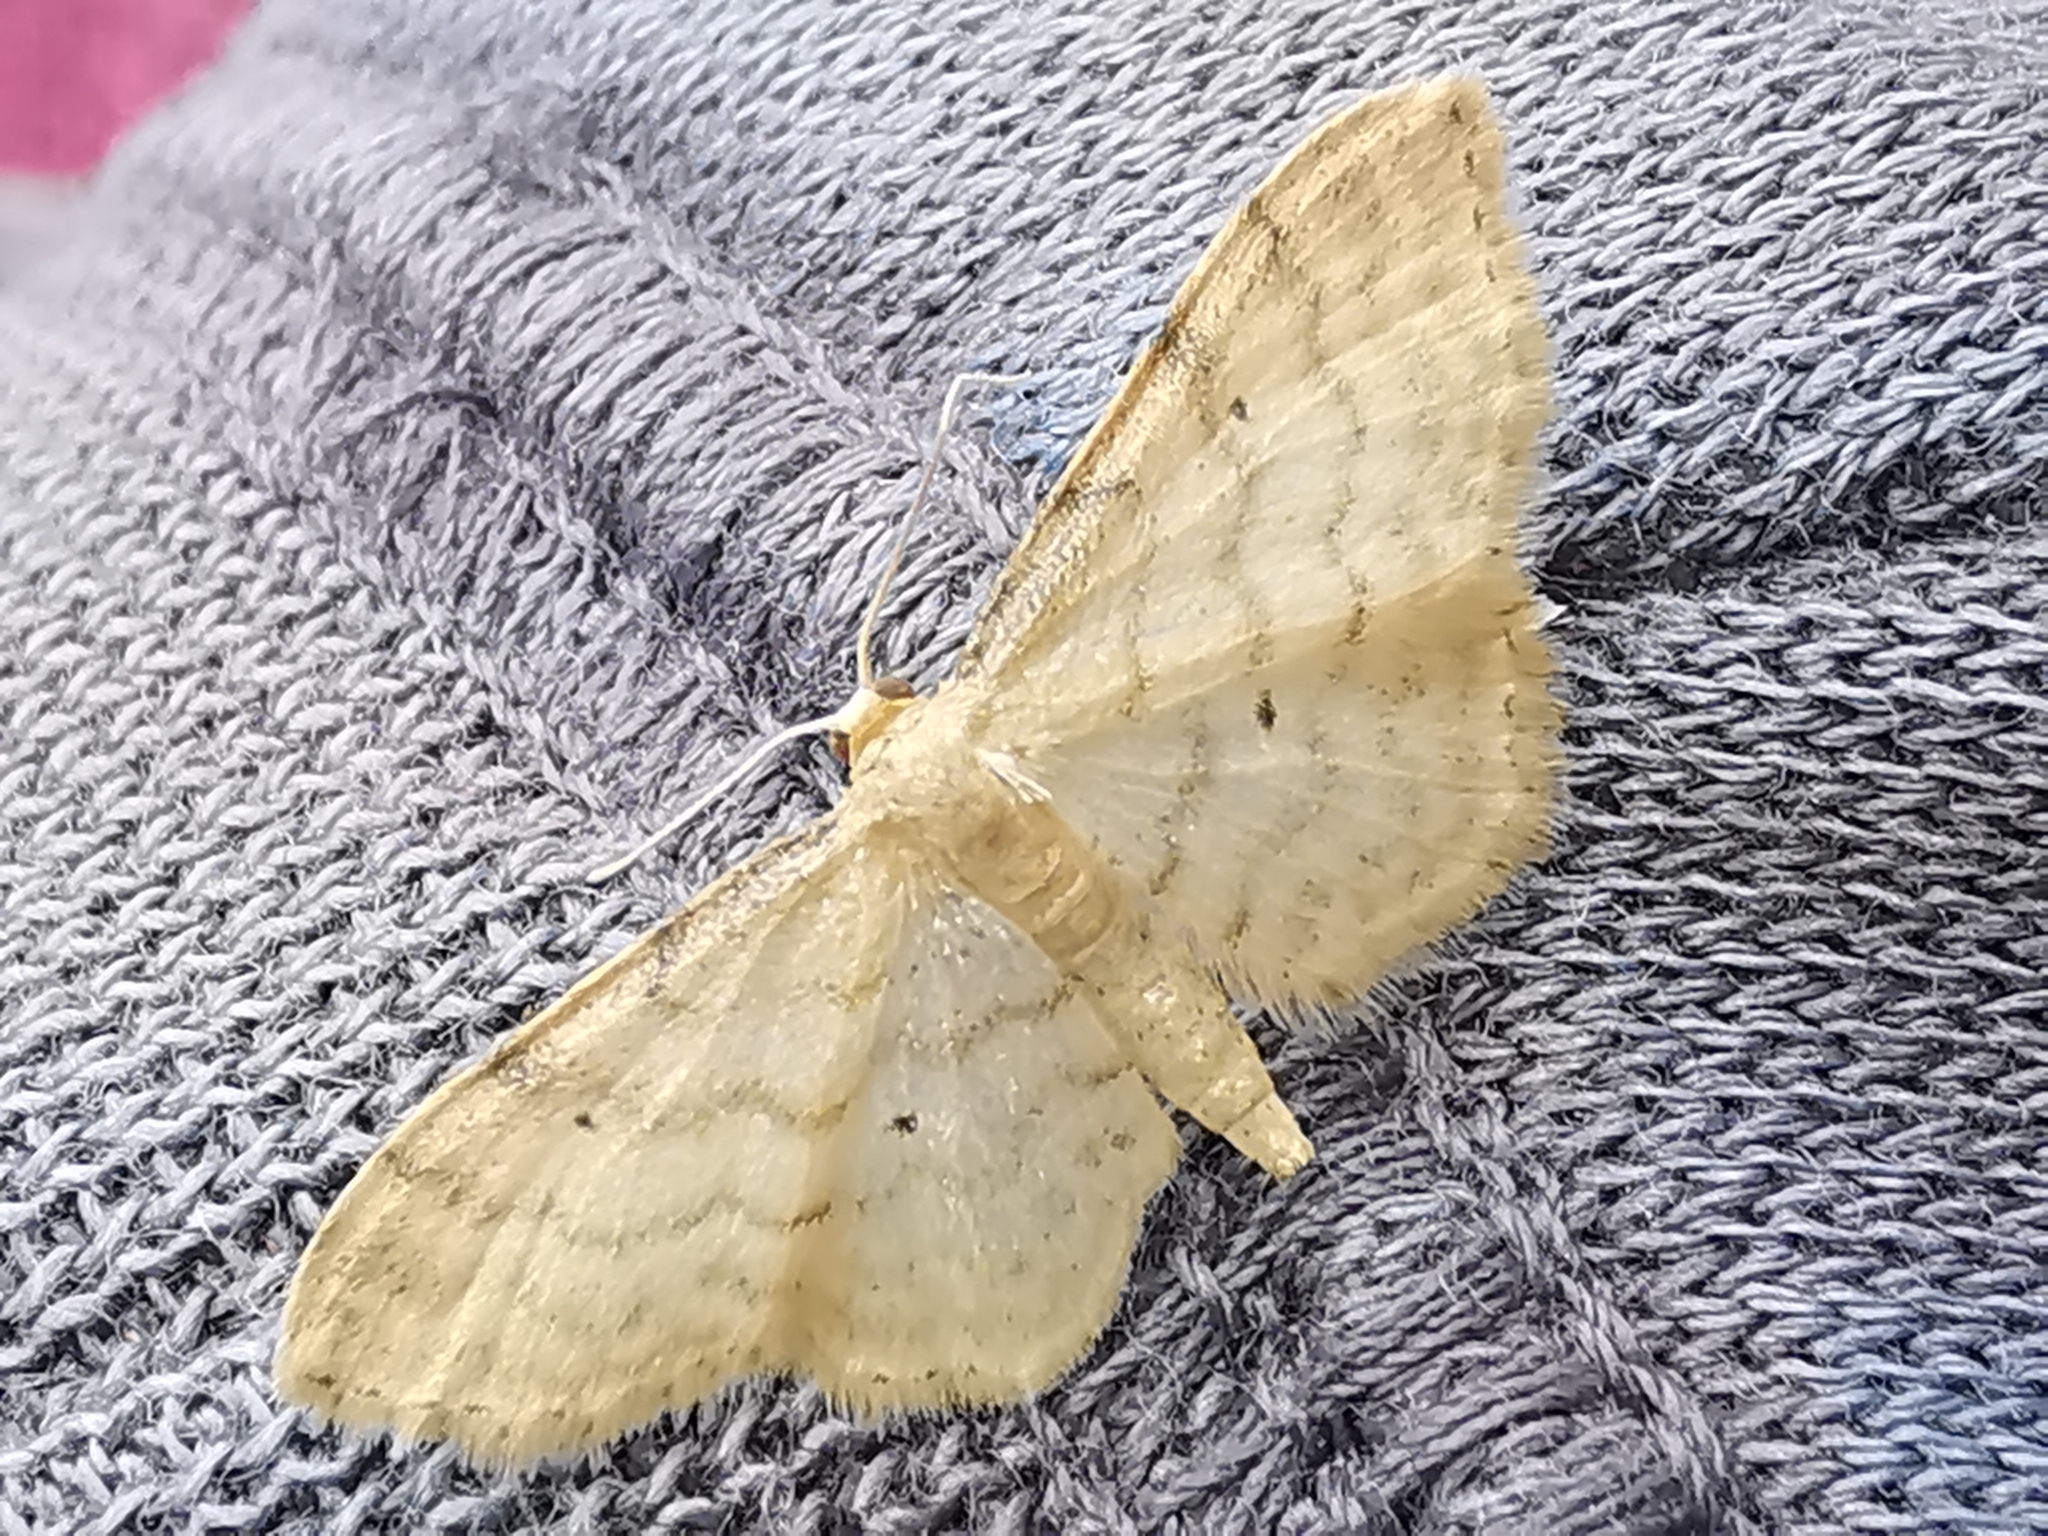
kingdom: Animalia
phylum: Arthropoda
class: Insecta
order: Lepidoptera
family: Geometridae
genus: Idaea
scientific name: Idaea fuscovenosa
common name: Dwarf cream wave
